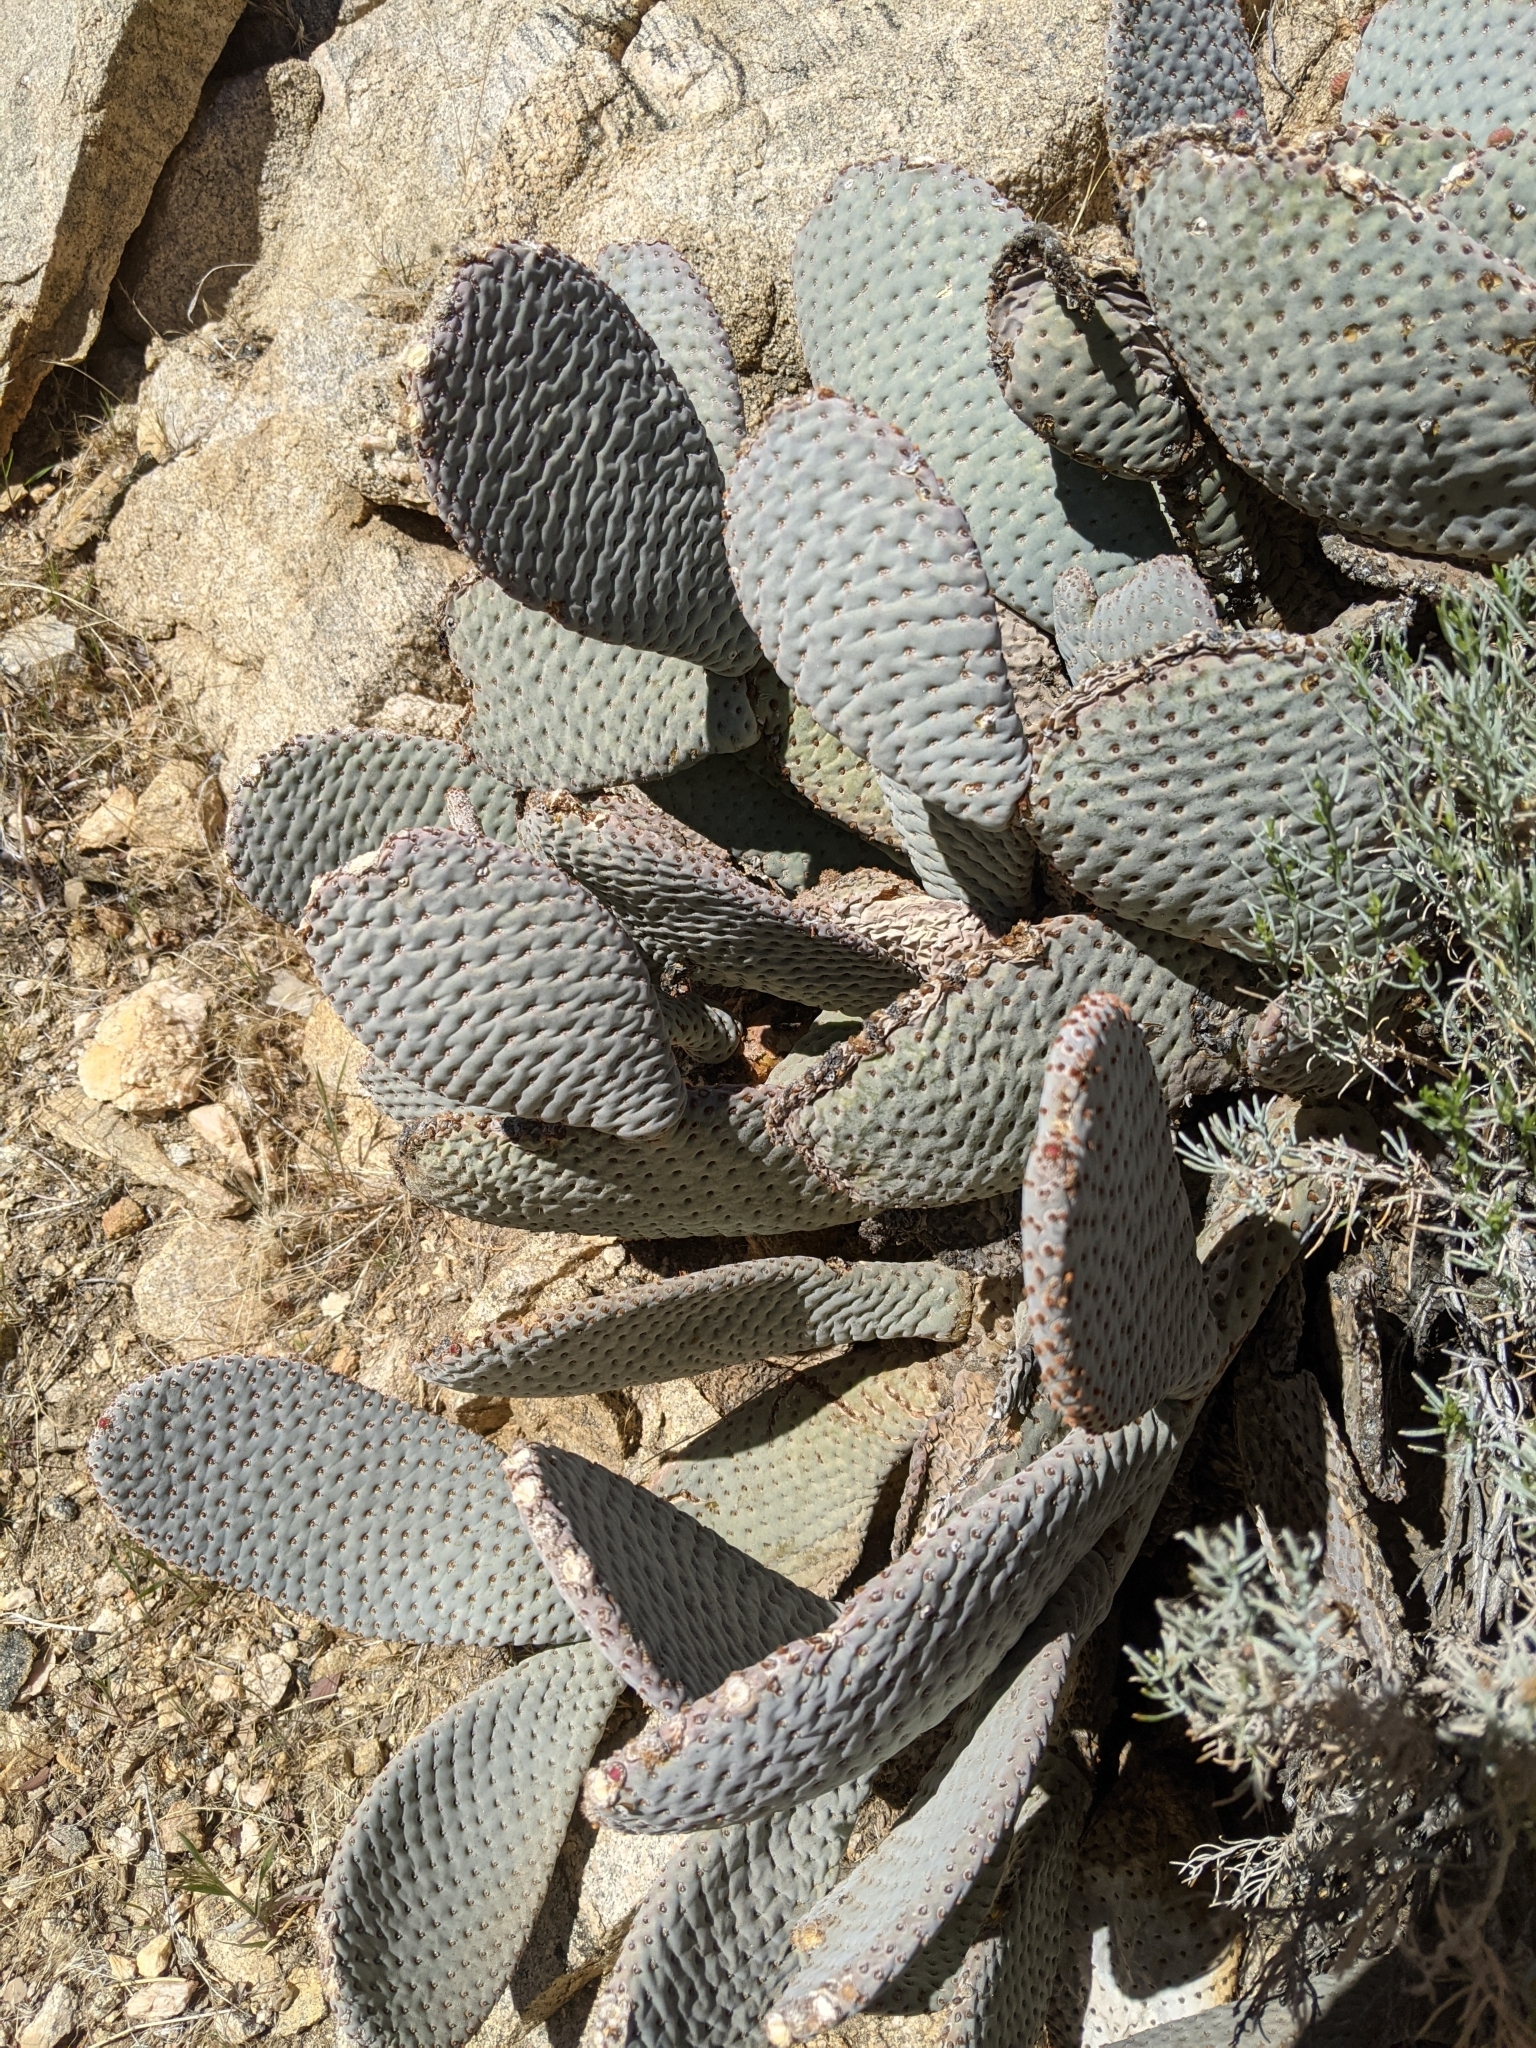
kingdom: Plantae
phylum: Tracheophyta
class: Magnoliopsida
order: Caryophyllales
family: Cactaceae
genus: Opuntia
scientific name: Opuntia basilaris
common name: Beavertail prickly-pear
